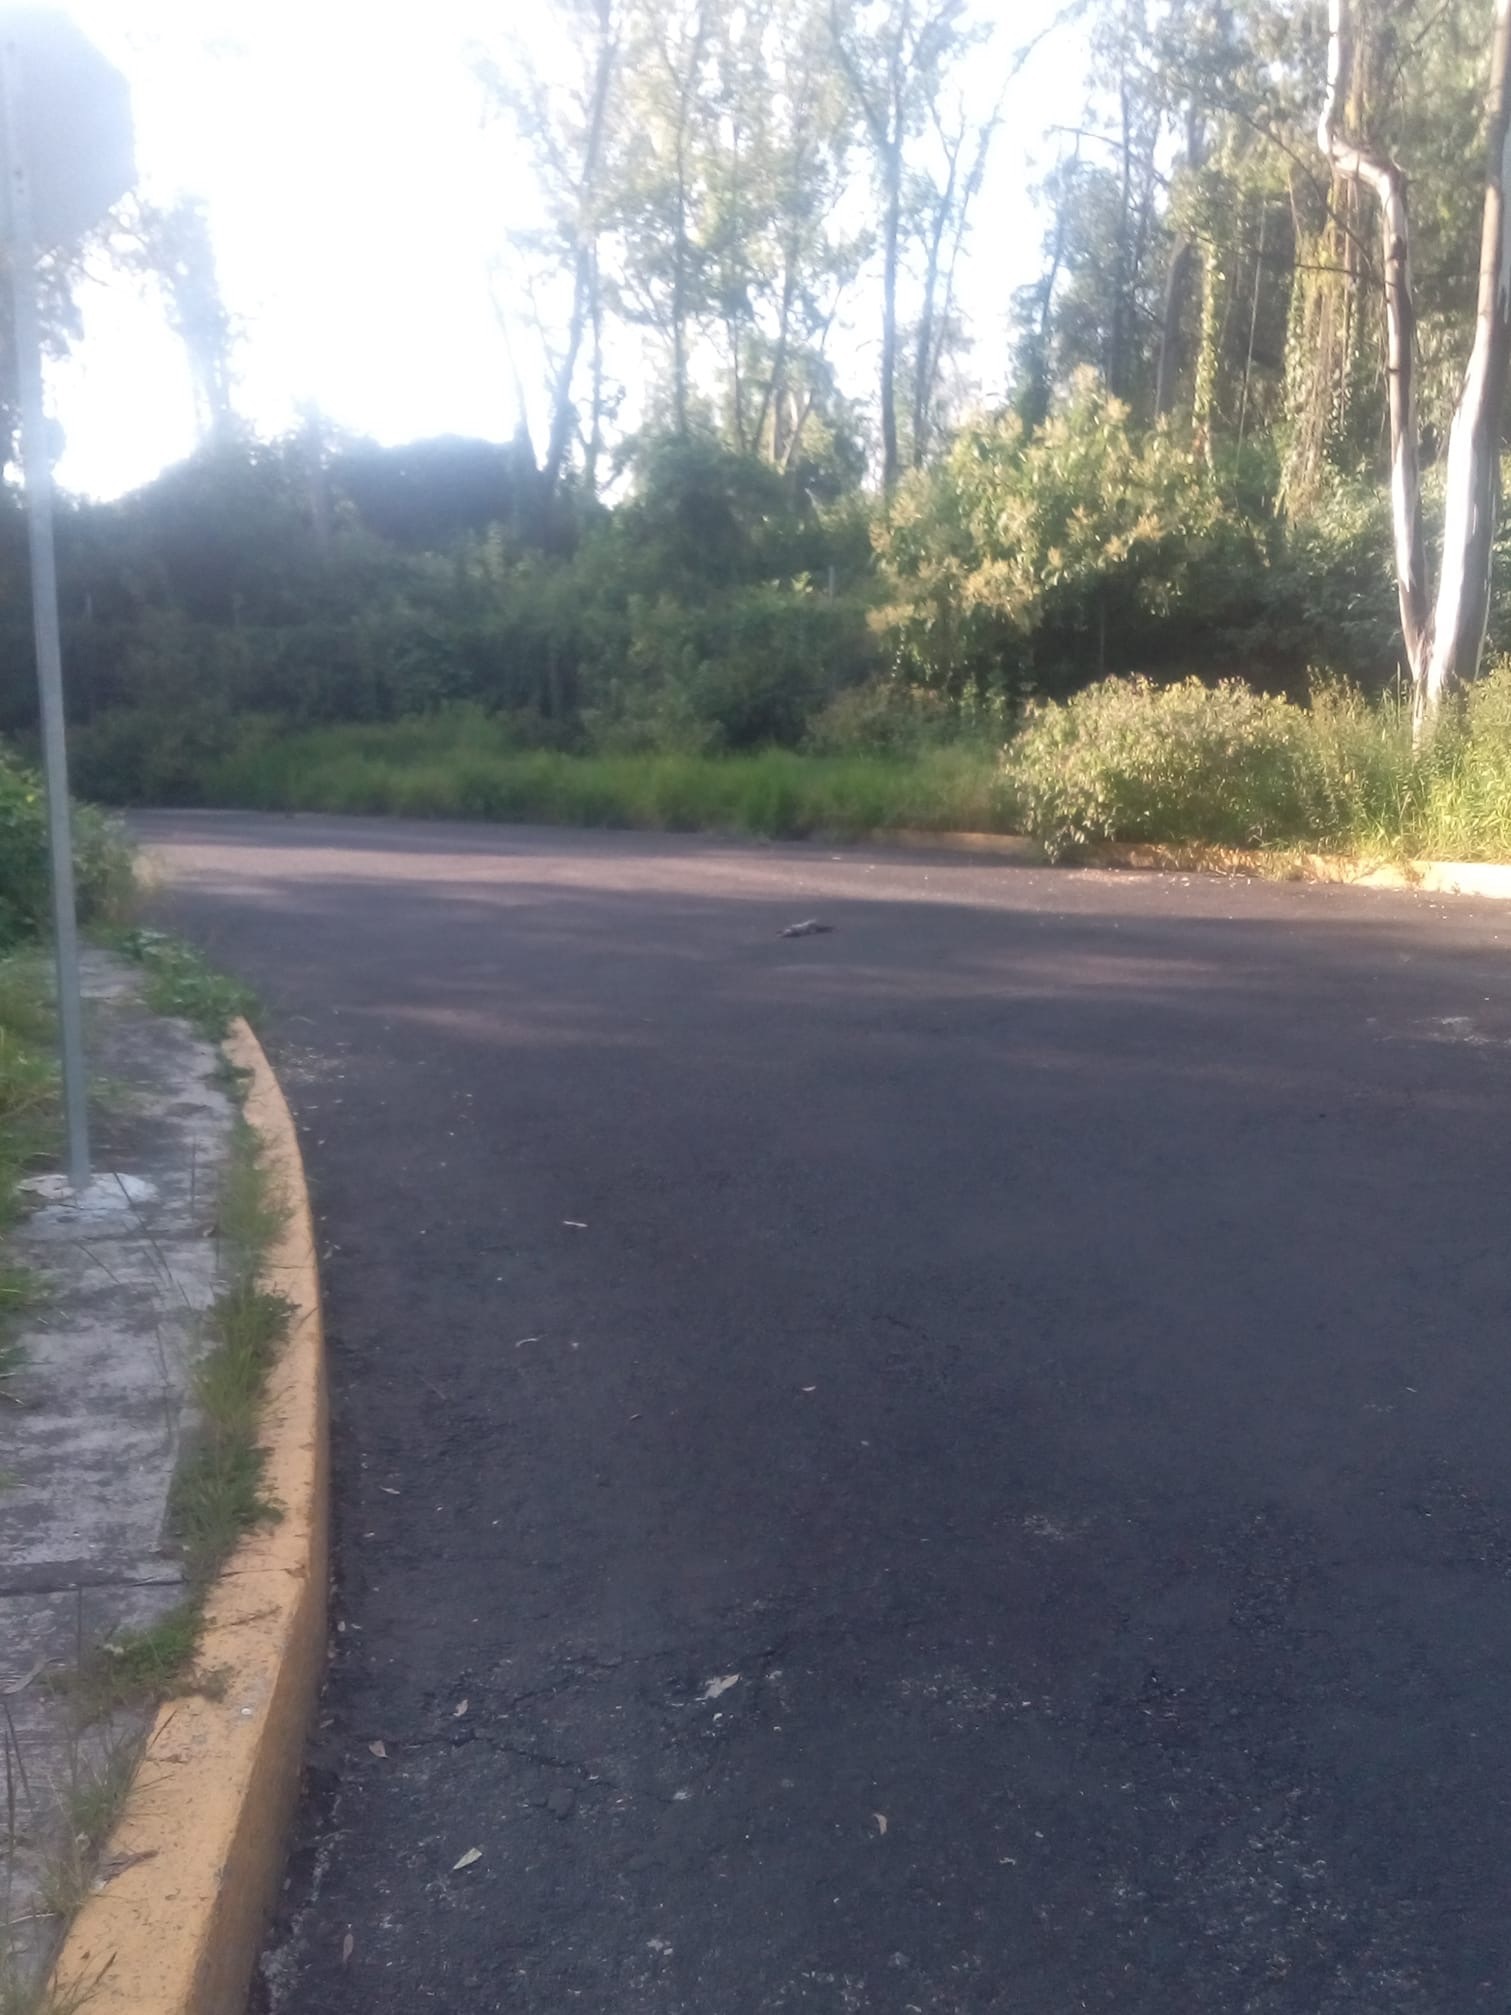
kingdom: Animalia
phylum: Chordata
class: Mammalia
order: Didelphimorphia
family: Didelphidae
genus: Didelphis
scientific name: Didelphis virginiana
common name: Virginia opossum
